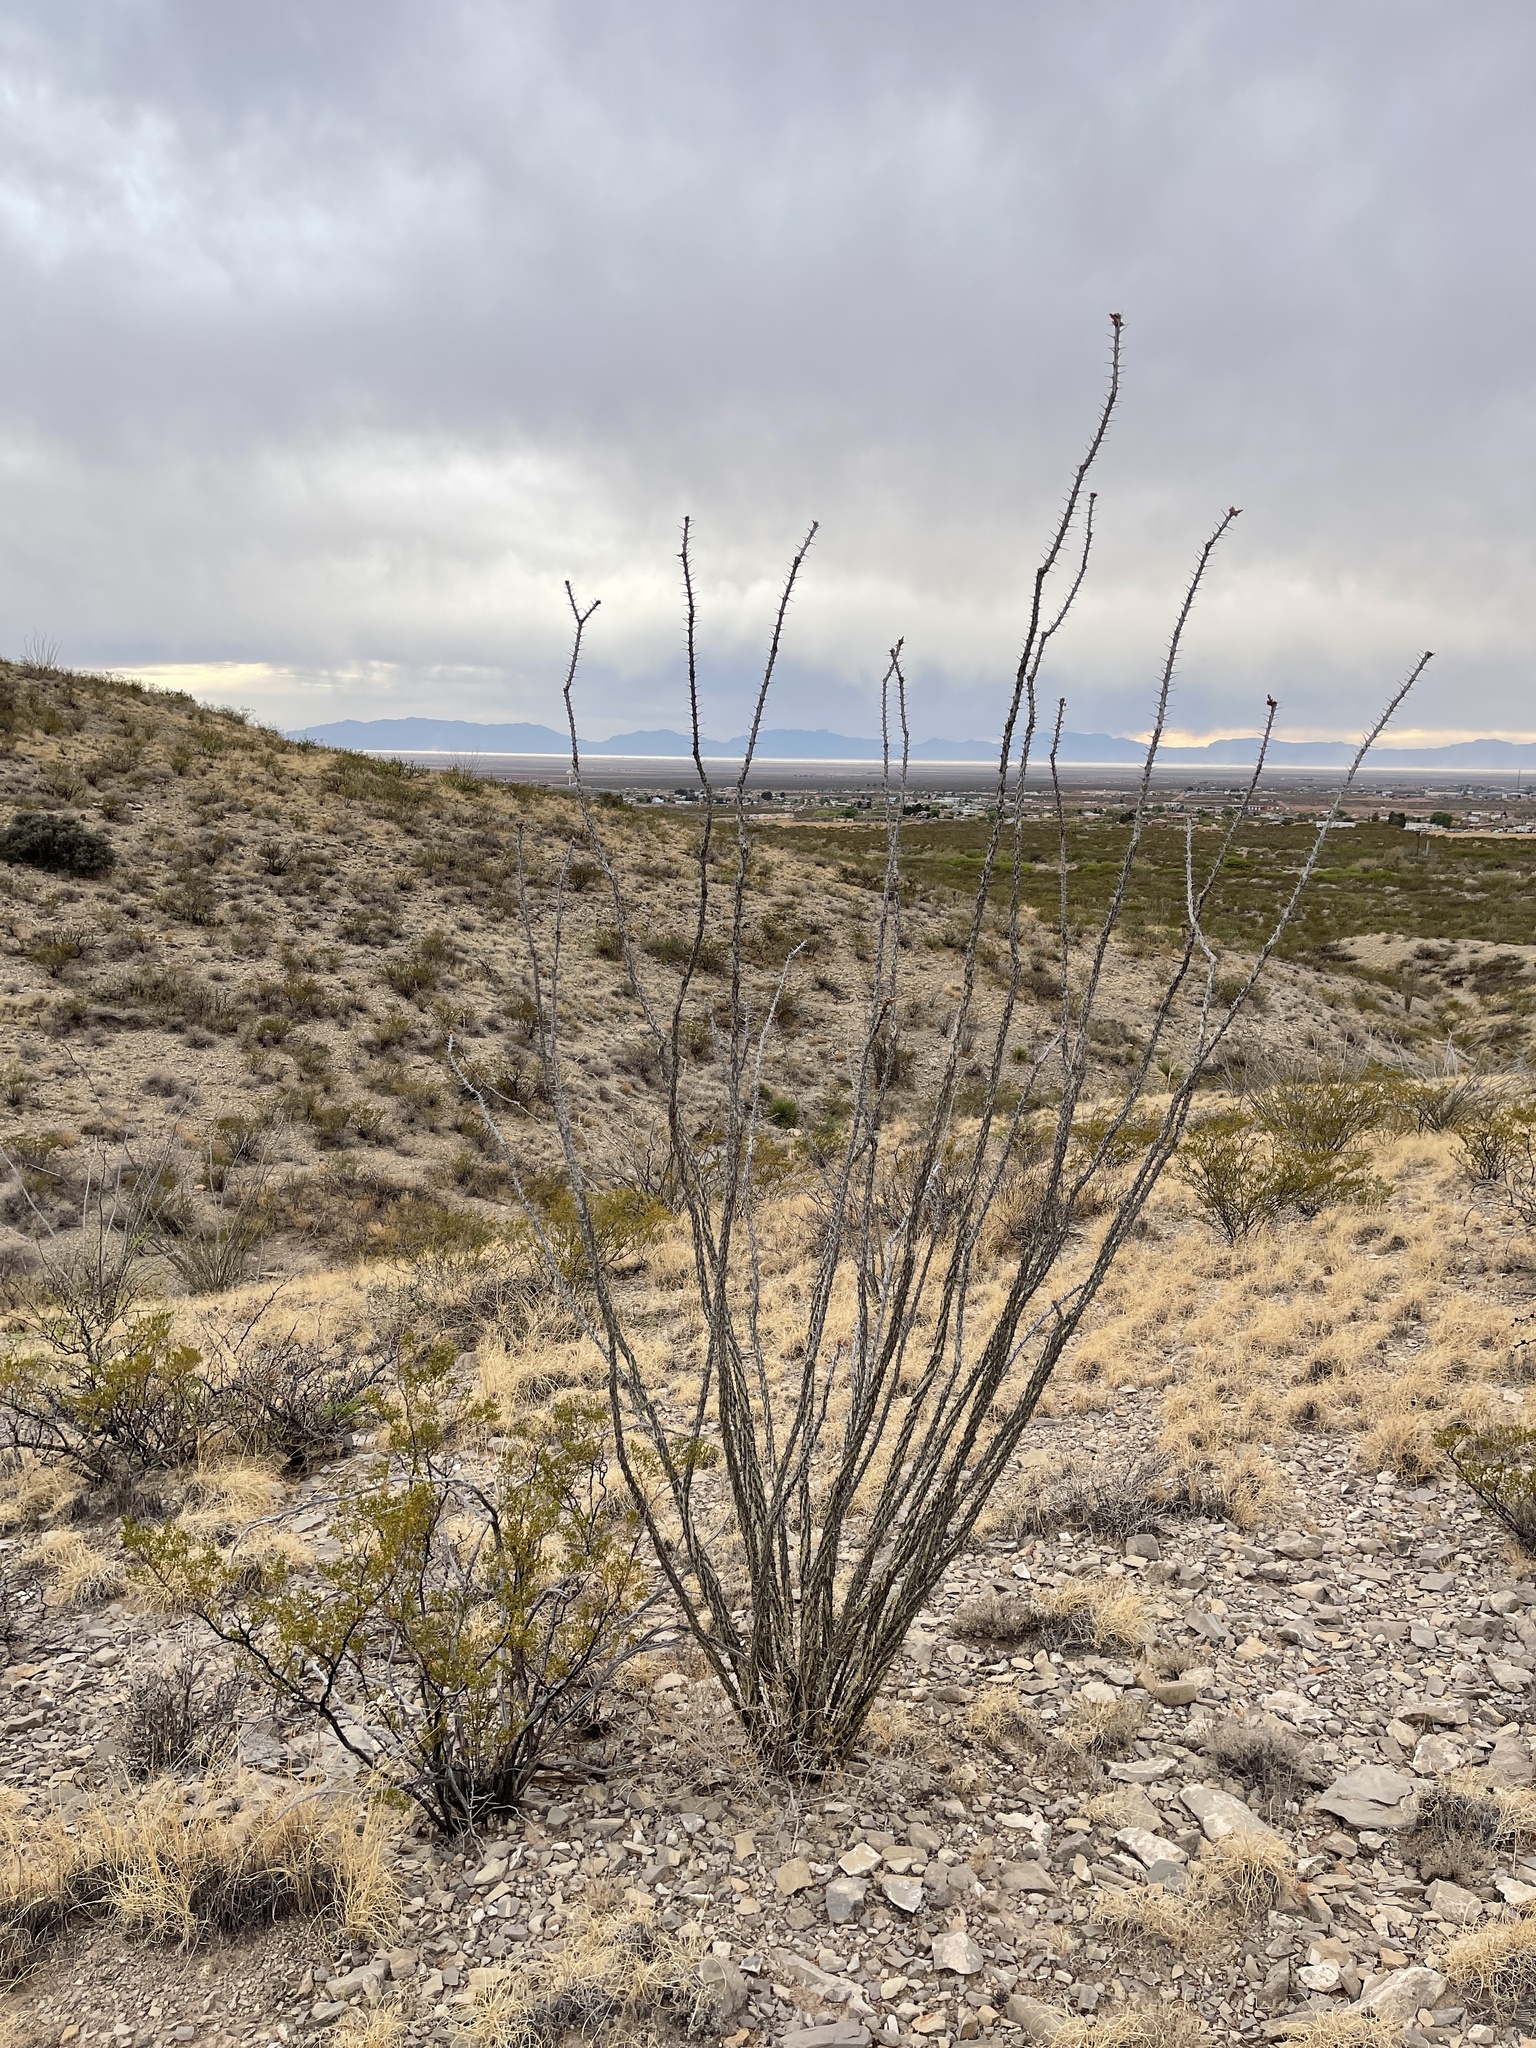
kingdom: Plantae
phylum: Tracheophyta
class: Magnoliopsida
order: Ericales
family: Fouquieriaceae
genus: Fouquieria
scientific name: Fouquieria splendens
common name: Vine-cactus
